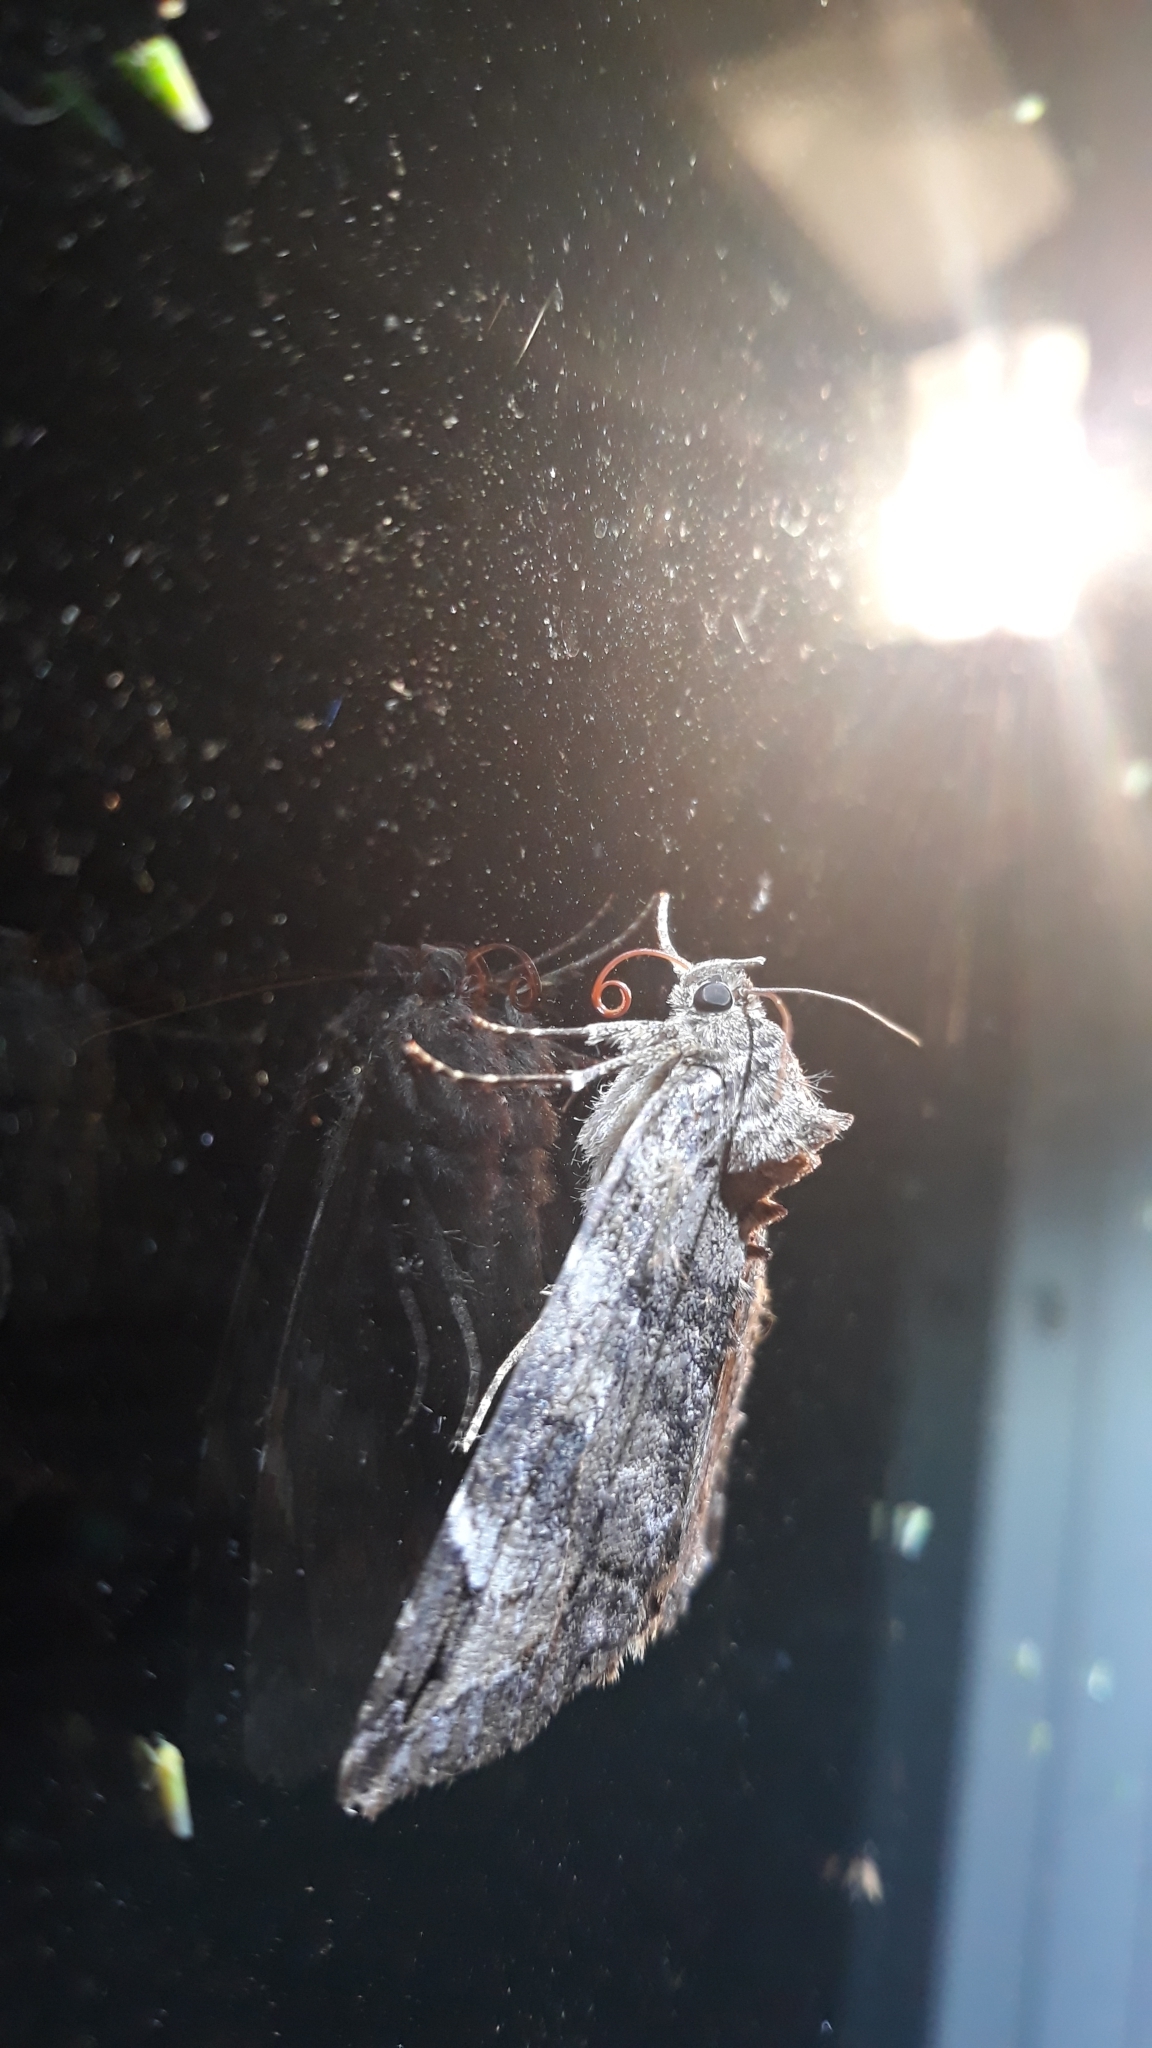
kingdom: Animalia
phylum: Arthropoda
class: Insecta
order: Lepidoptera
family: Erebidae
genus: Euparthenos
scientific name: Euparthenos nubilis
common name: Locust underwing
